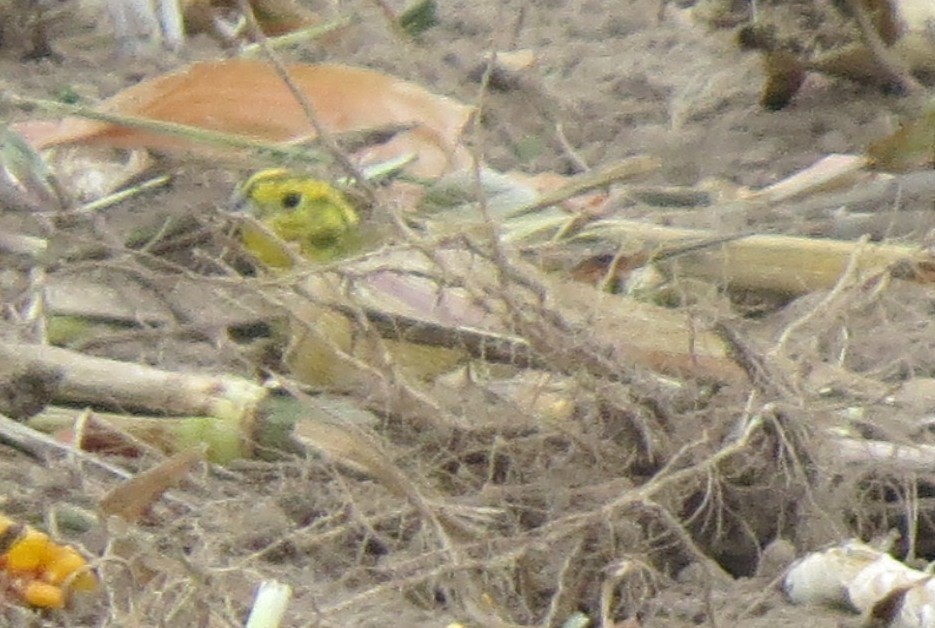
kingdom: Animalia
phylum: Chordata
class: Aves
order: Passeriformes
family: Emberizidae
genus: Emberiza
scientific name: Emberiza citrinella
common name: Yellowhammer
